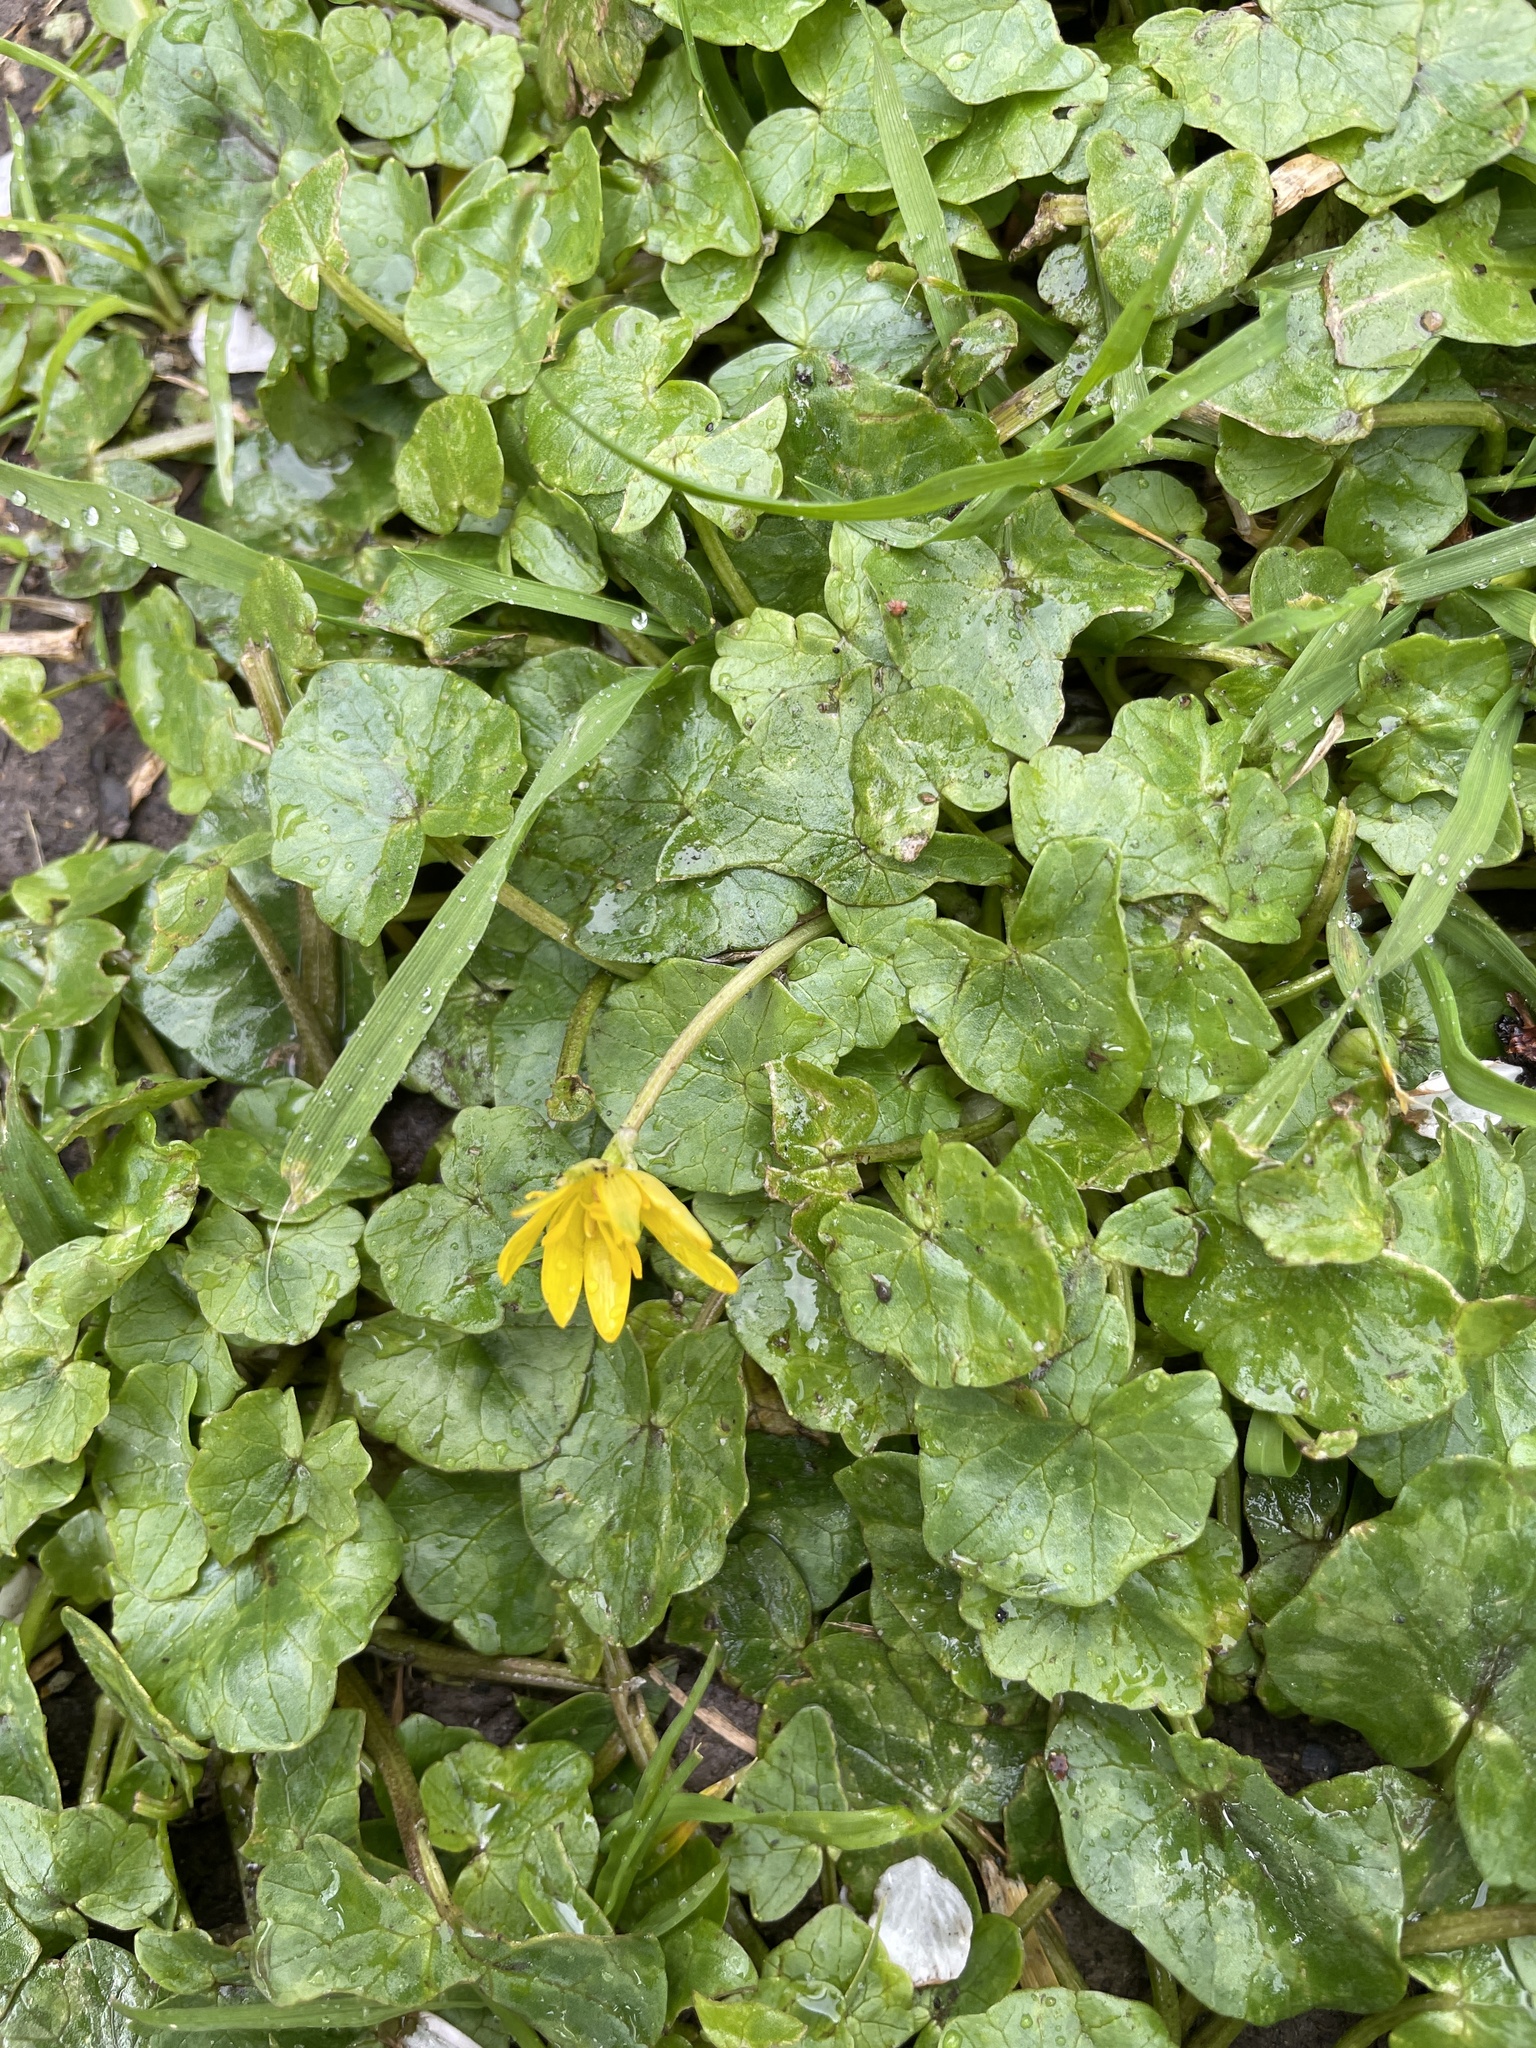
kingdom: Plantae
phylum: Tracheophyta
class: Magnoliopsida
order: Ranunculales
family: Ranunculaceae
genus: Ficaria
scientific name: Ficaria verna
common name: Lesser celandine
